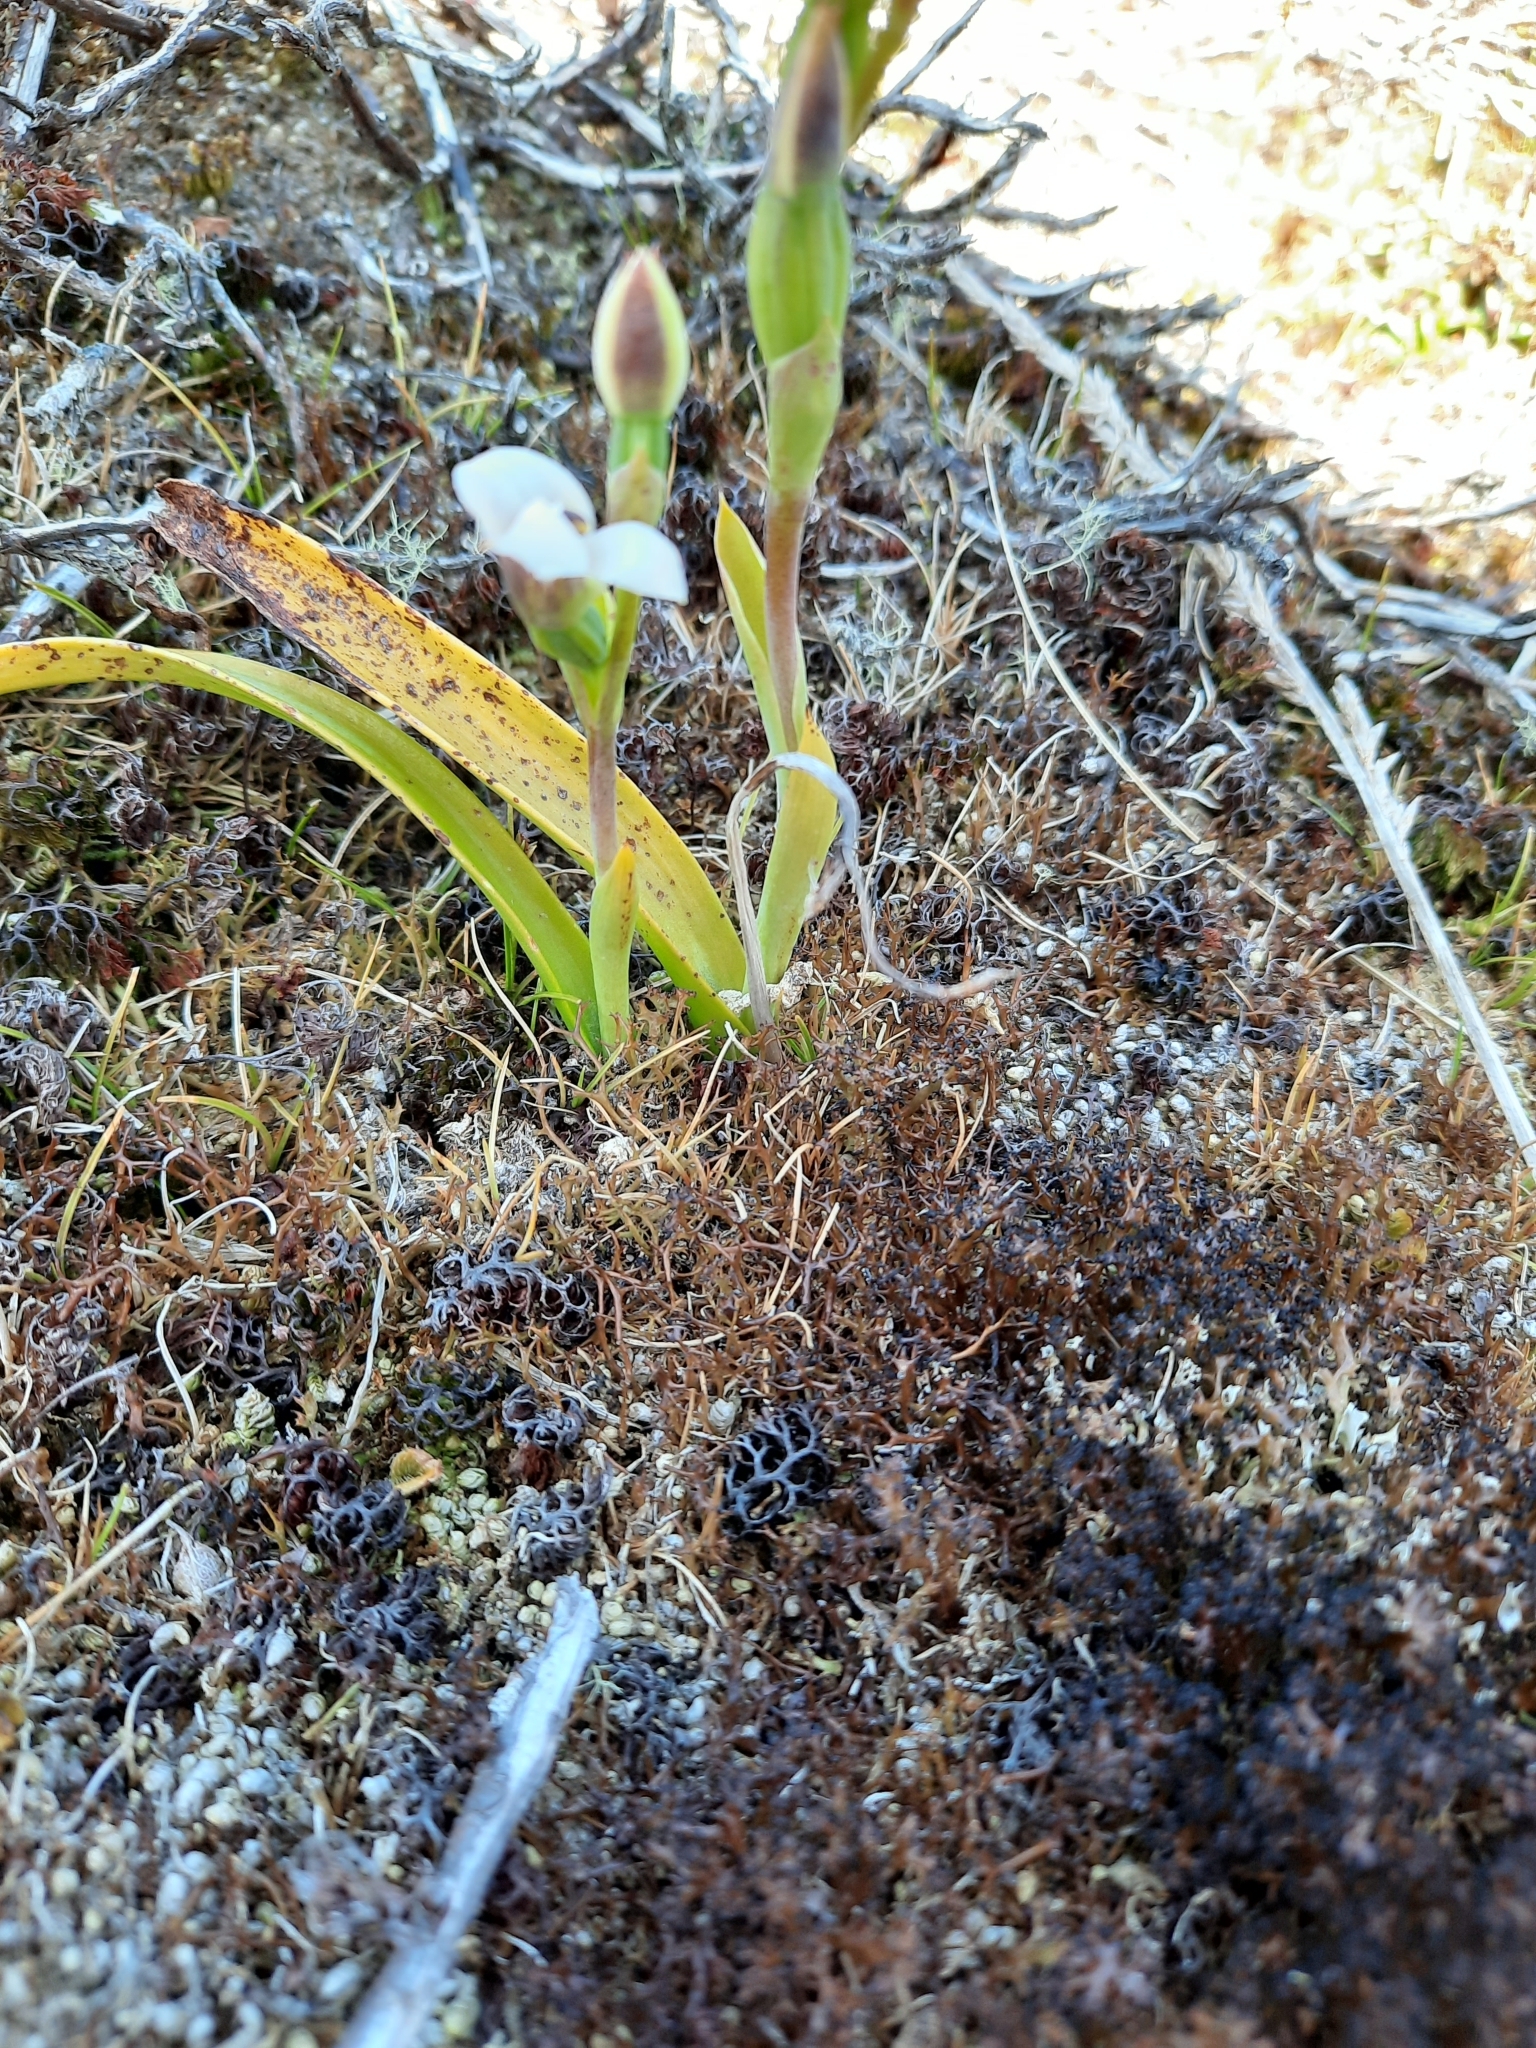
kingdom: Plantae
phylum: Tracheophyta
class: Liliopsida
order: Asparagales
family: Orchidaceae
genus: Thelymitra
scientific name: Thelymitra longifolia
